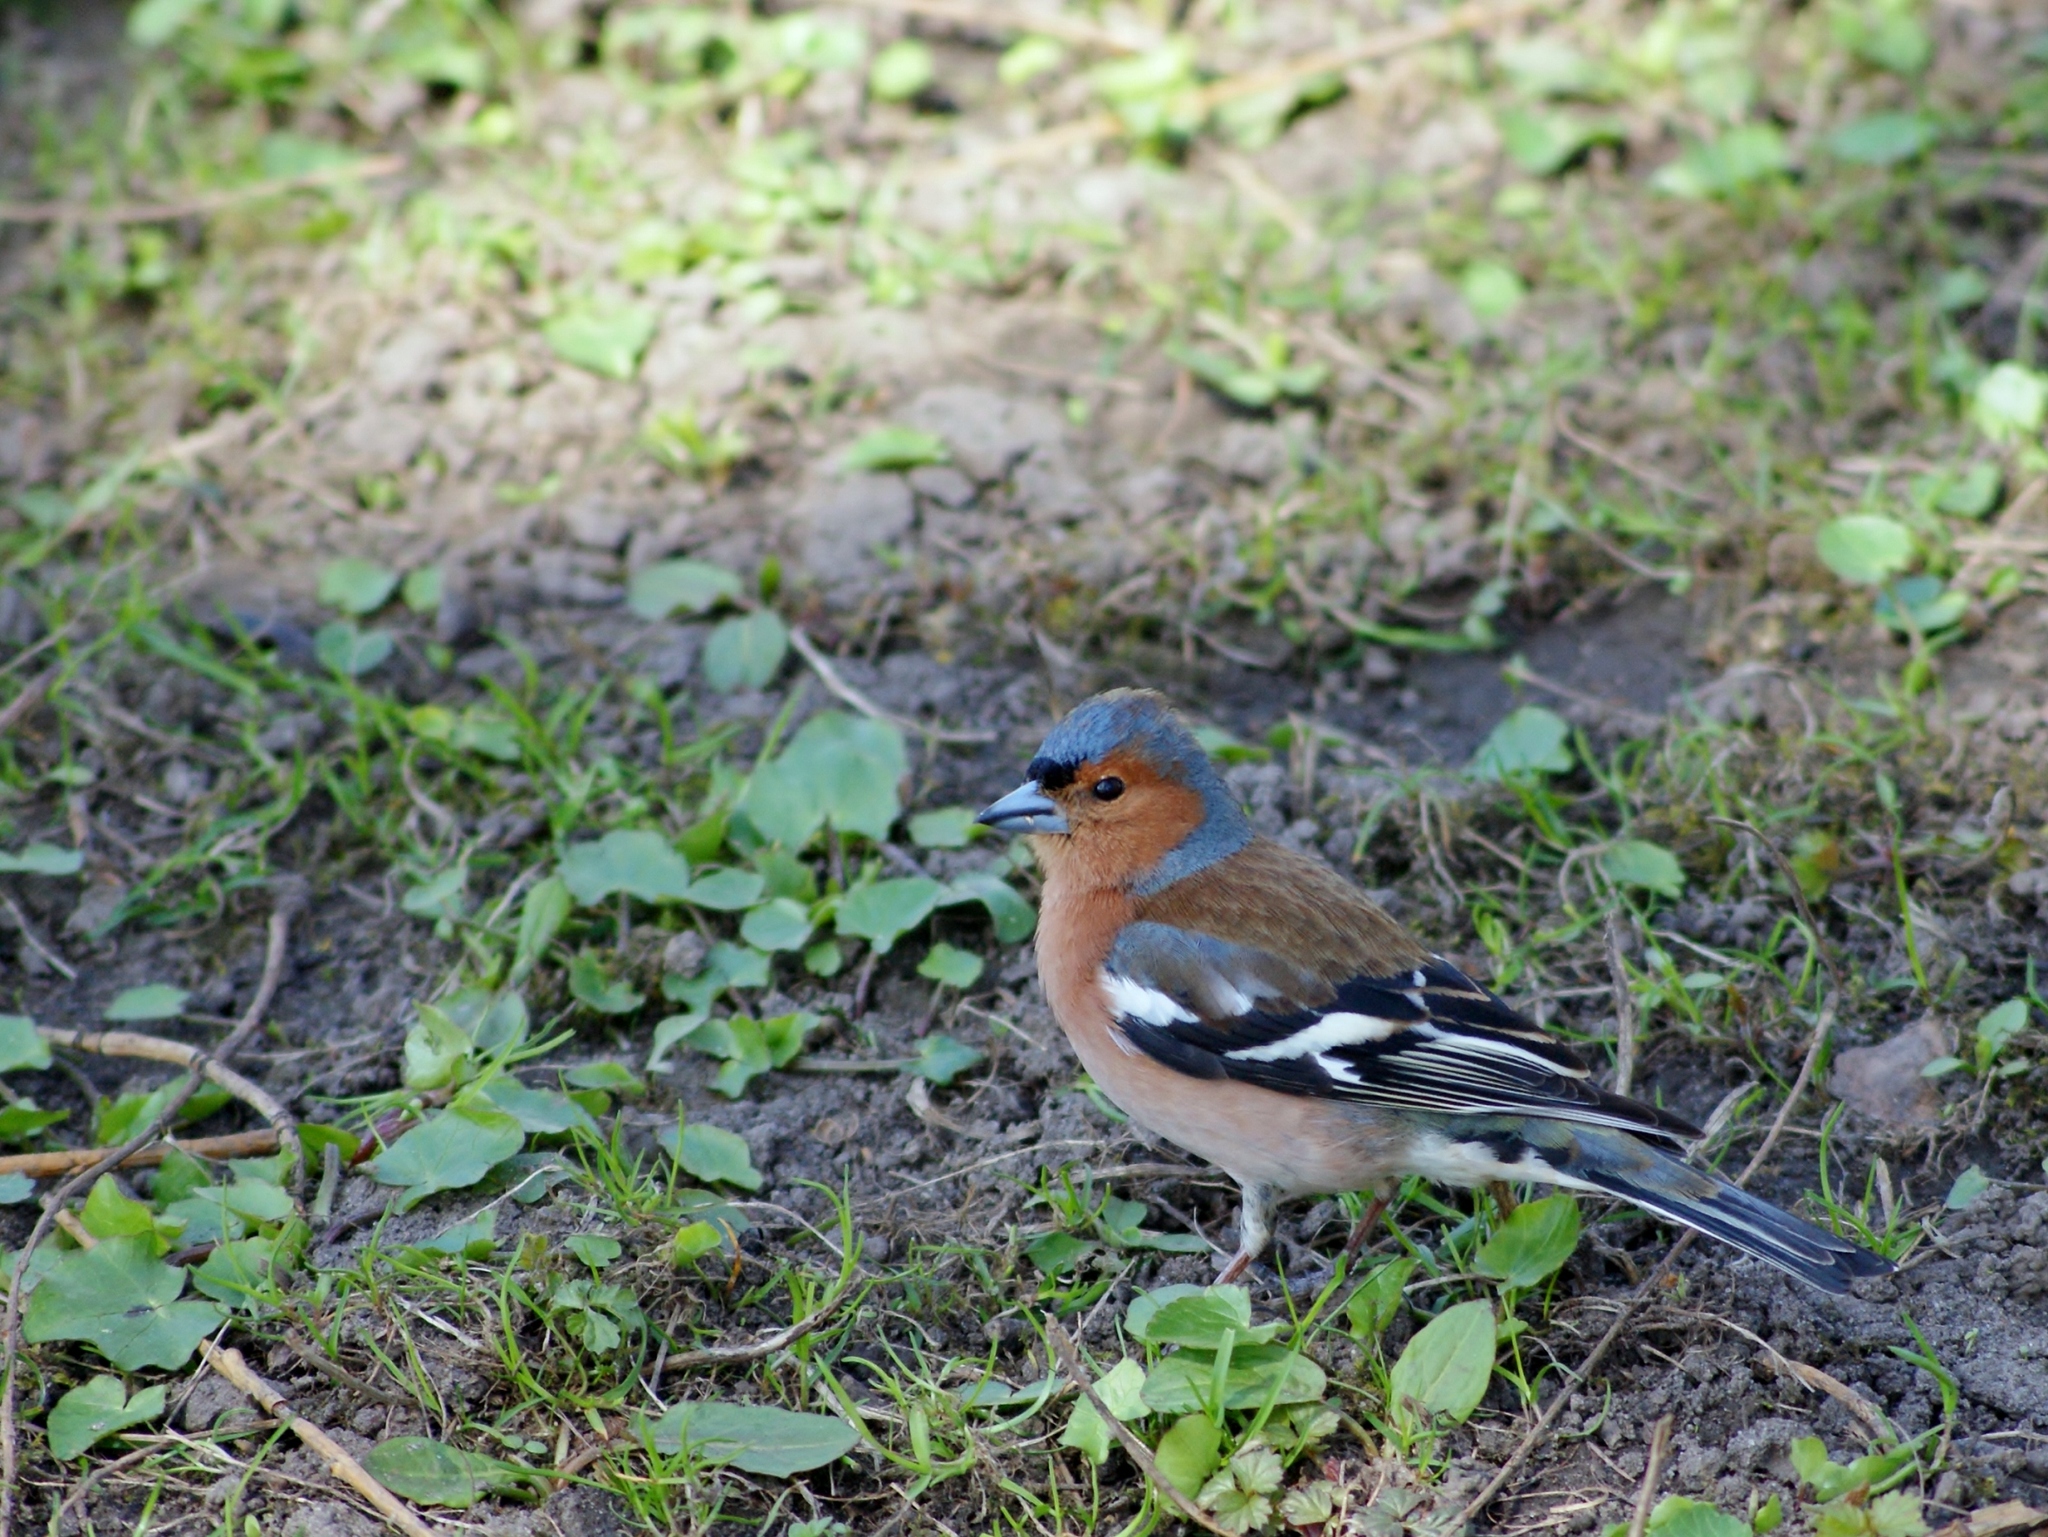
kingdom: Animalia
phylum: Chordata
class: Aves
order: Passeriformes
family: Fringillidae
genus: Fringilla
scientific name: Fringilla coelebs
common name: Common chaffinch
